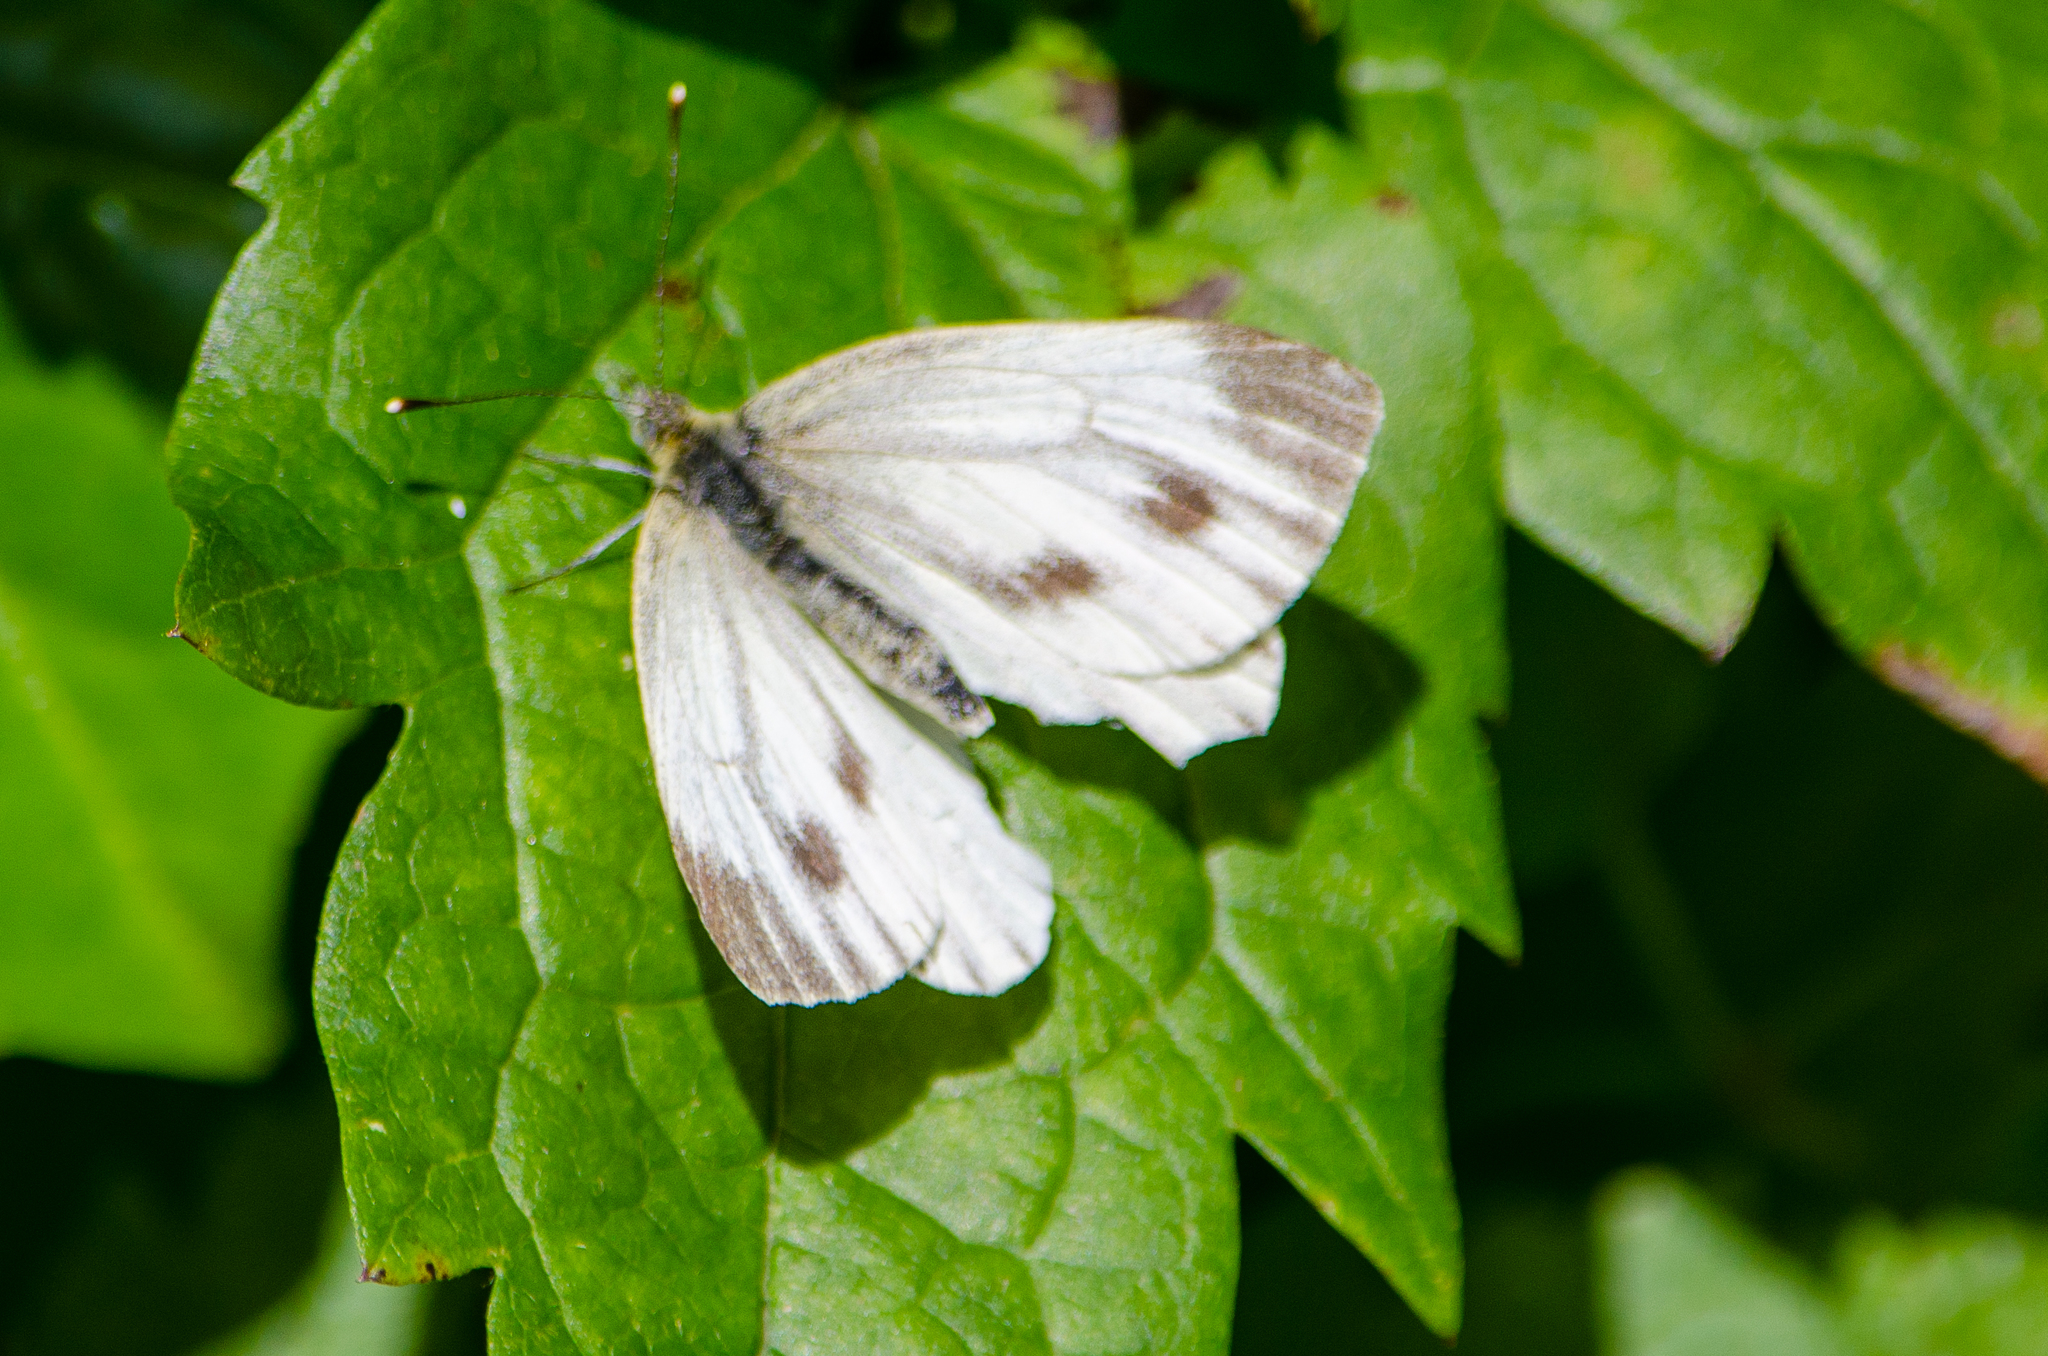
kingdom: Animalia
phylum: Arthropoda
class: Insecta
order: Lepidoptera
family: Pieridae
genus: Pieris
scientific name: Pieris napi
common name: Green-veined white
